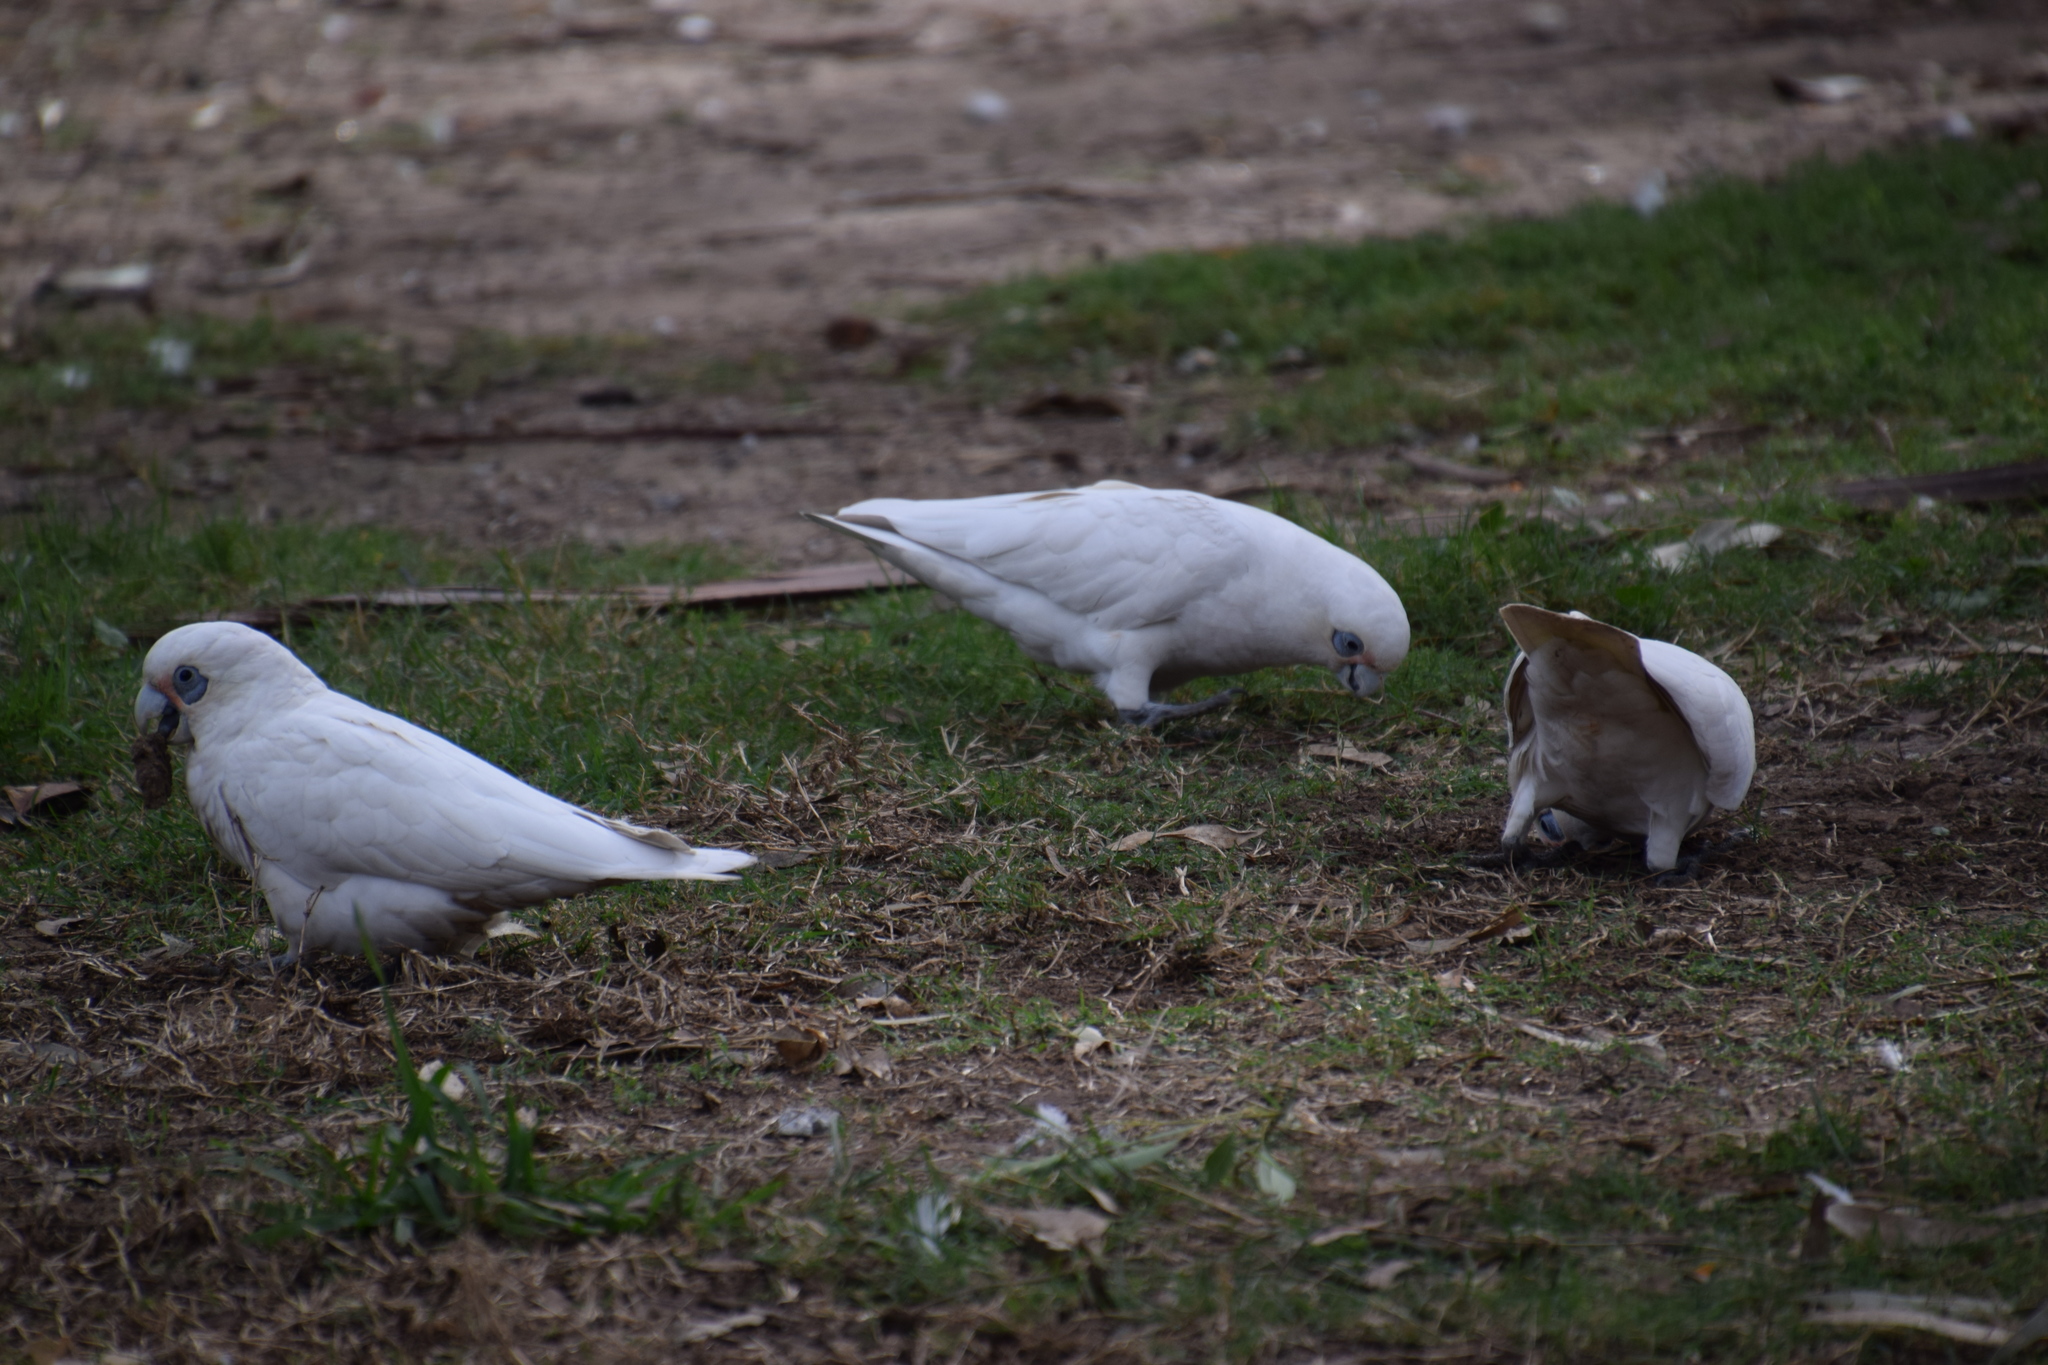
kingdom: Animalia
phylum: Chordata
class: Aves
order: Psittaciformes
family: Psittacidae
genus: Cacatua
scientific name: Cacatua sanguinea
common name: Little corella
